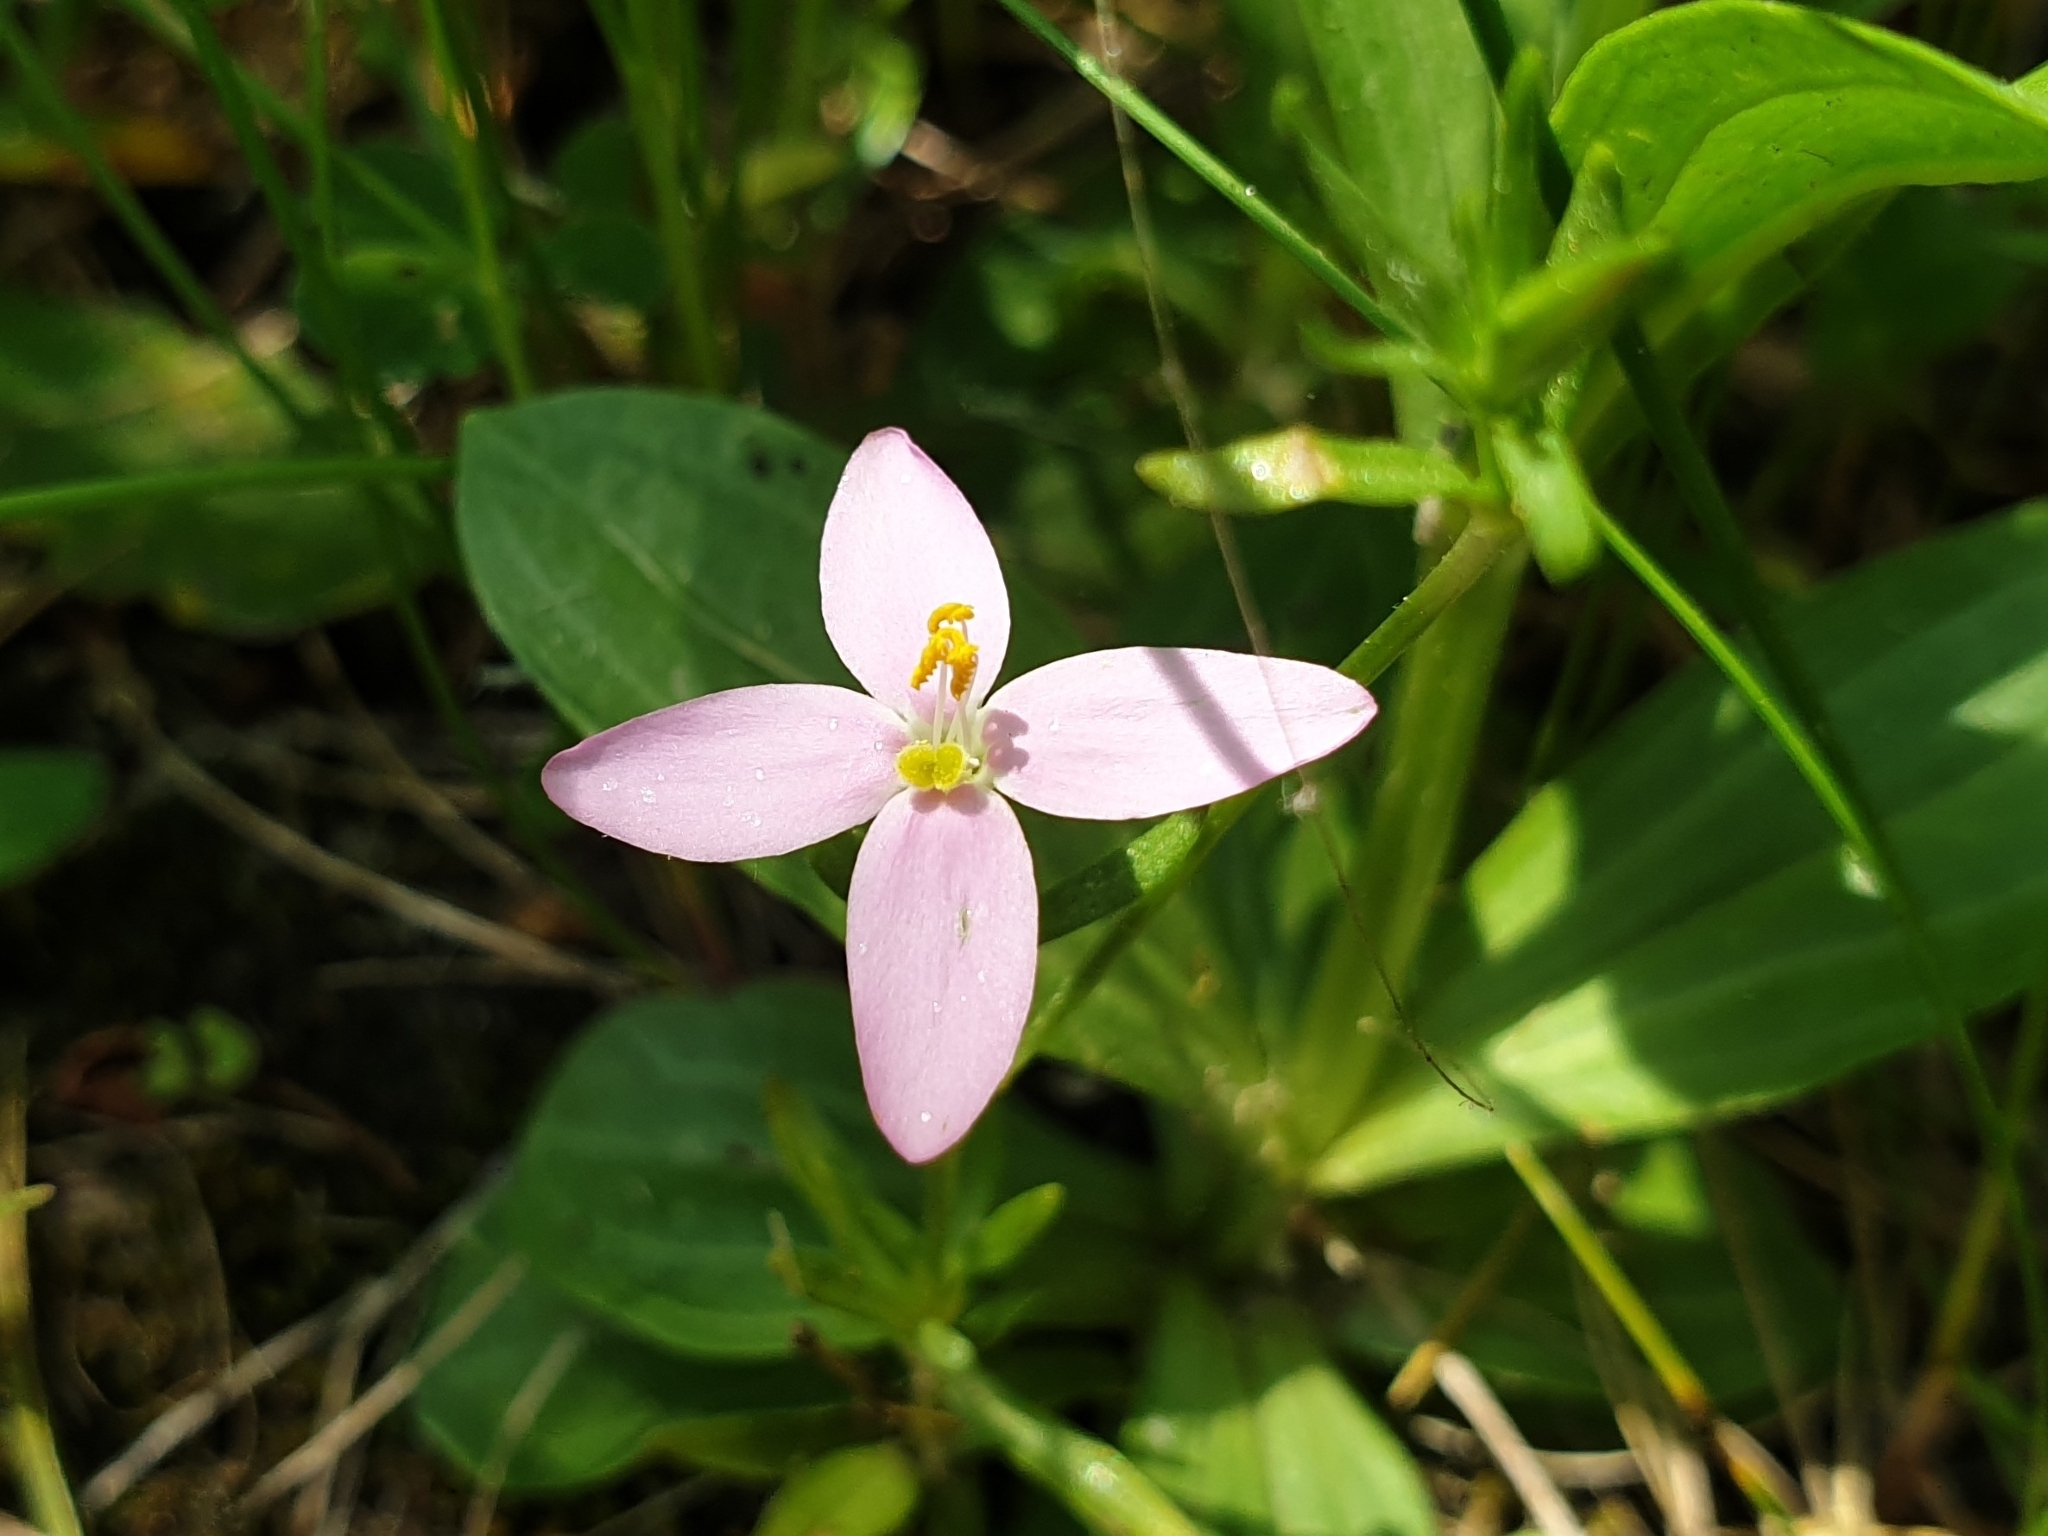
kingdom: Plantae
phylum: Tracheophyta
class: Magnoliopsida
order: Gentianales
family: Gentianaceae
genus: Centaurium
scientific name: Centaurium erythraea
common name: Common centaury
